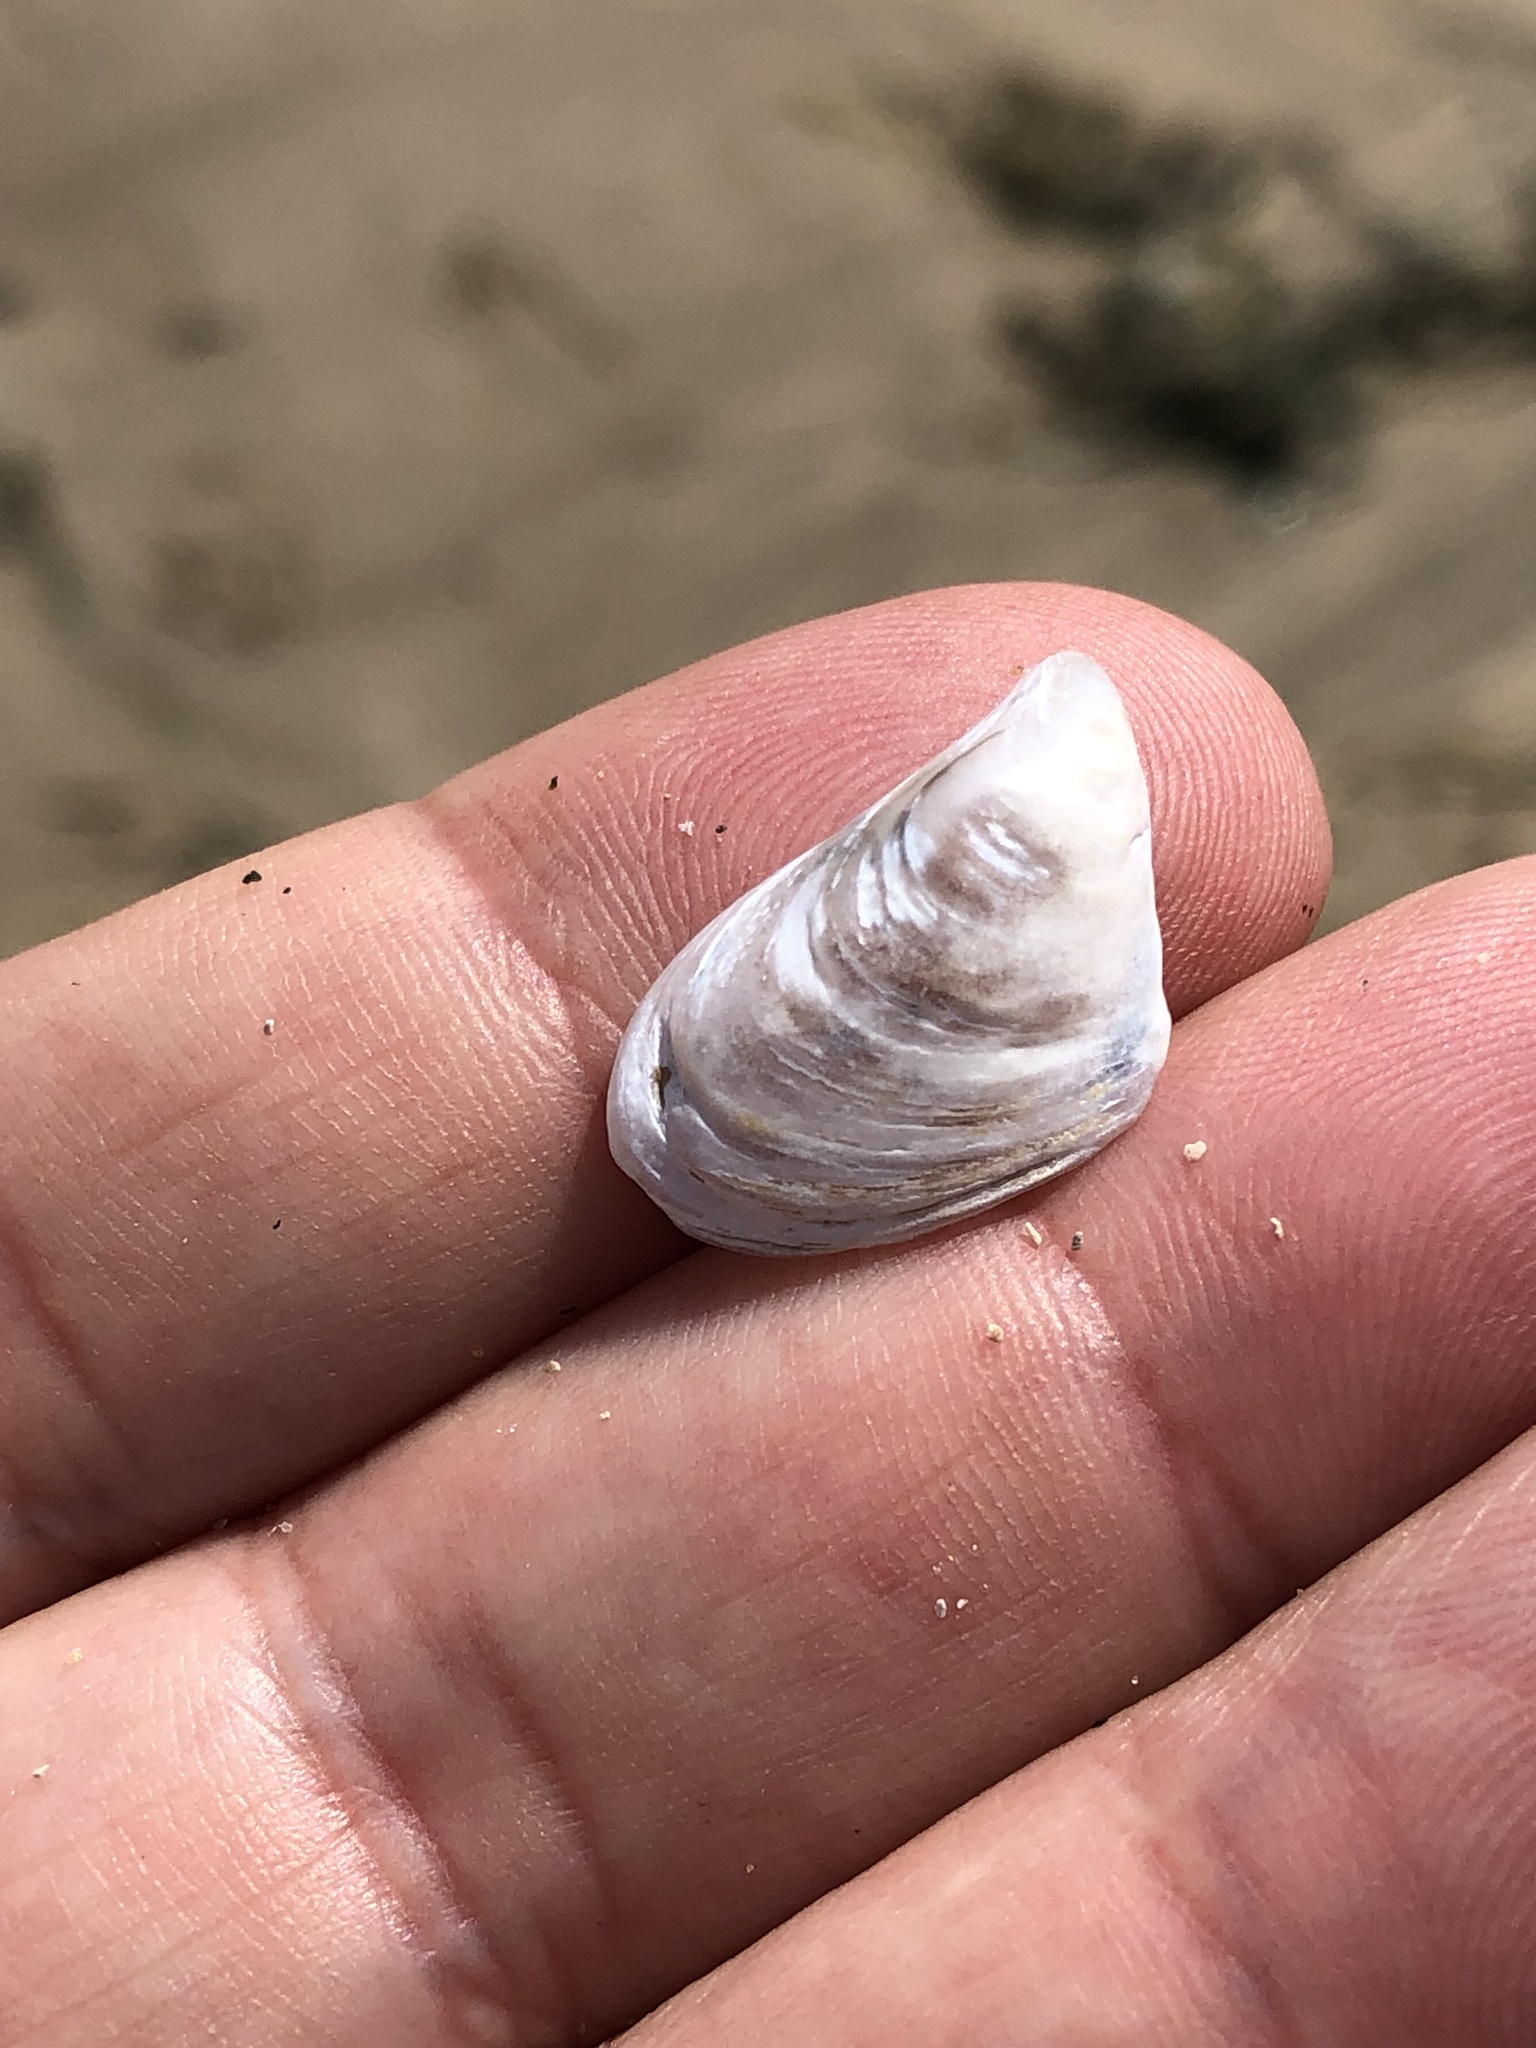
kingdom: Animalia
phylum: Mollusca
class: Bivalvia
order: Myida
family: Dreissenidae
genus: Dreissena
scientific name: Dreissena bugensis
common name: Quagga mussel
